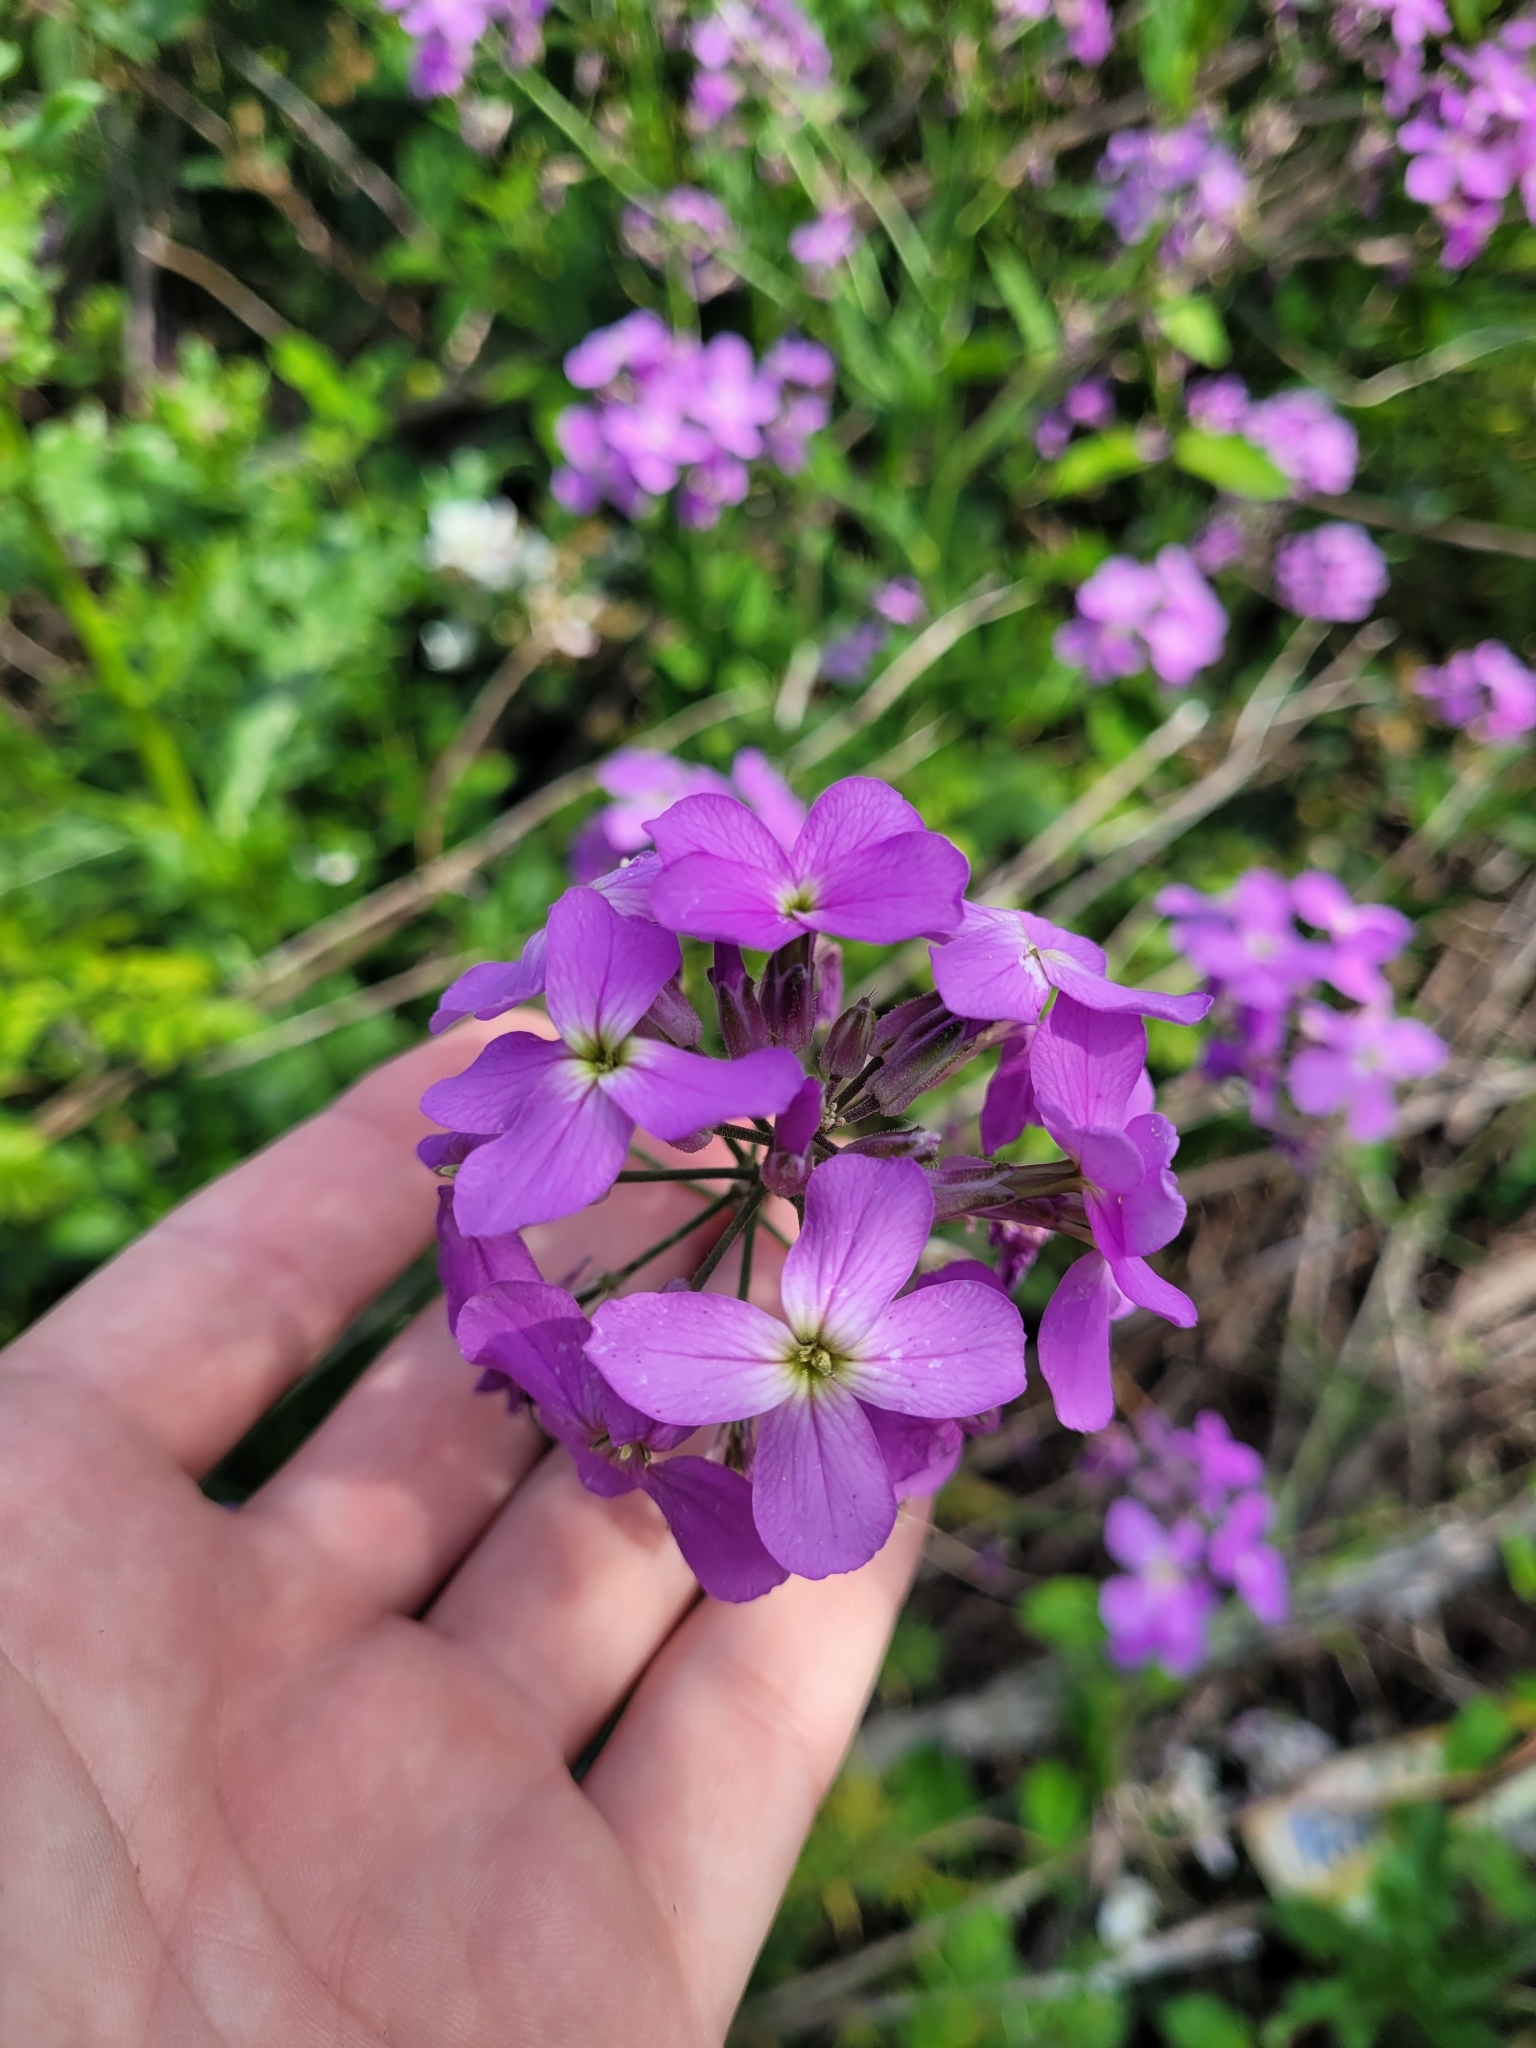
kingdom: Plantae
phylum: Tracheophyta
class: Magnoliopsida
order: Brassicales
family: Brassicaceae
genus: Hesperis
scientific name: Hesperis matronalis
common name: Dame's-violet
